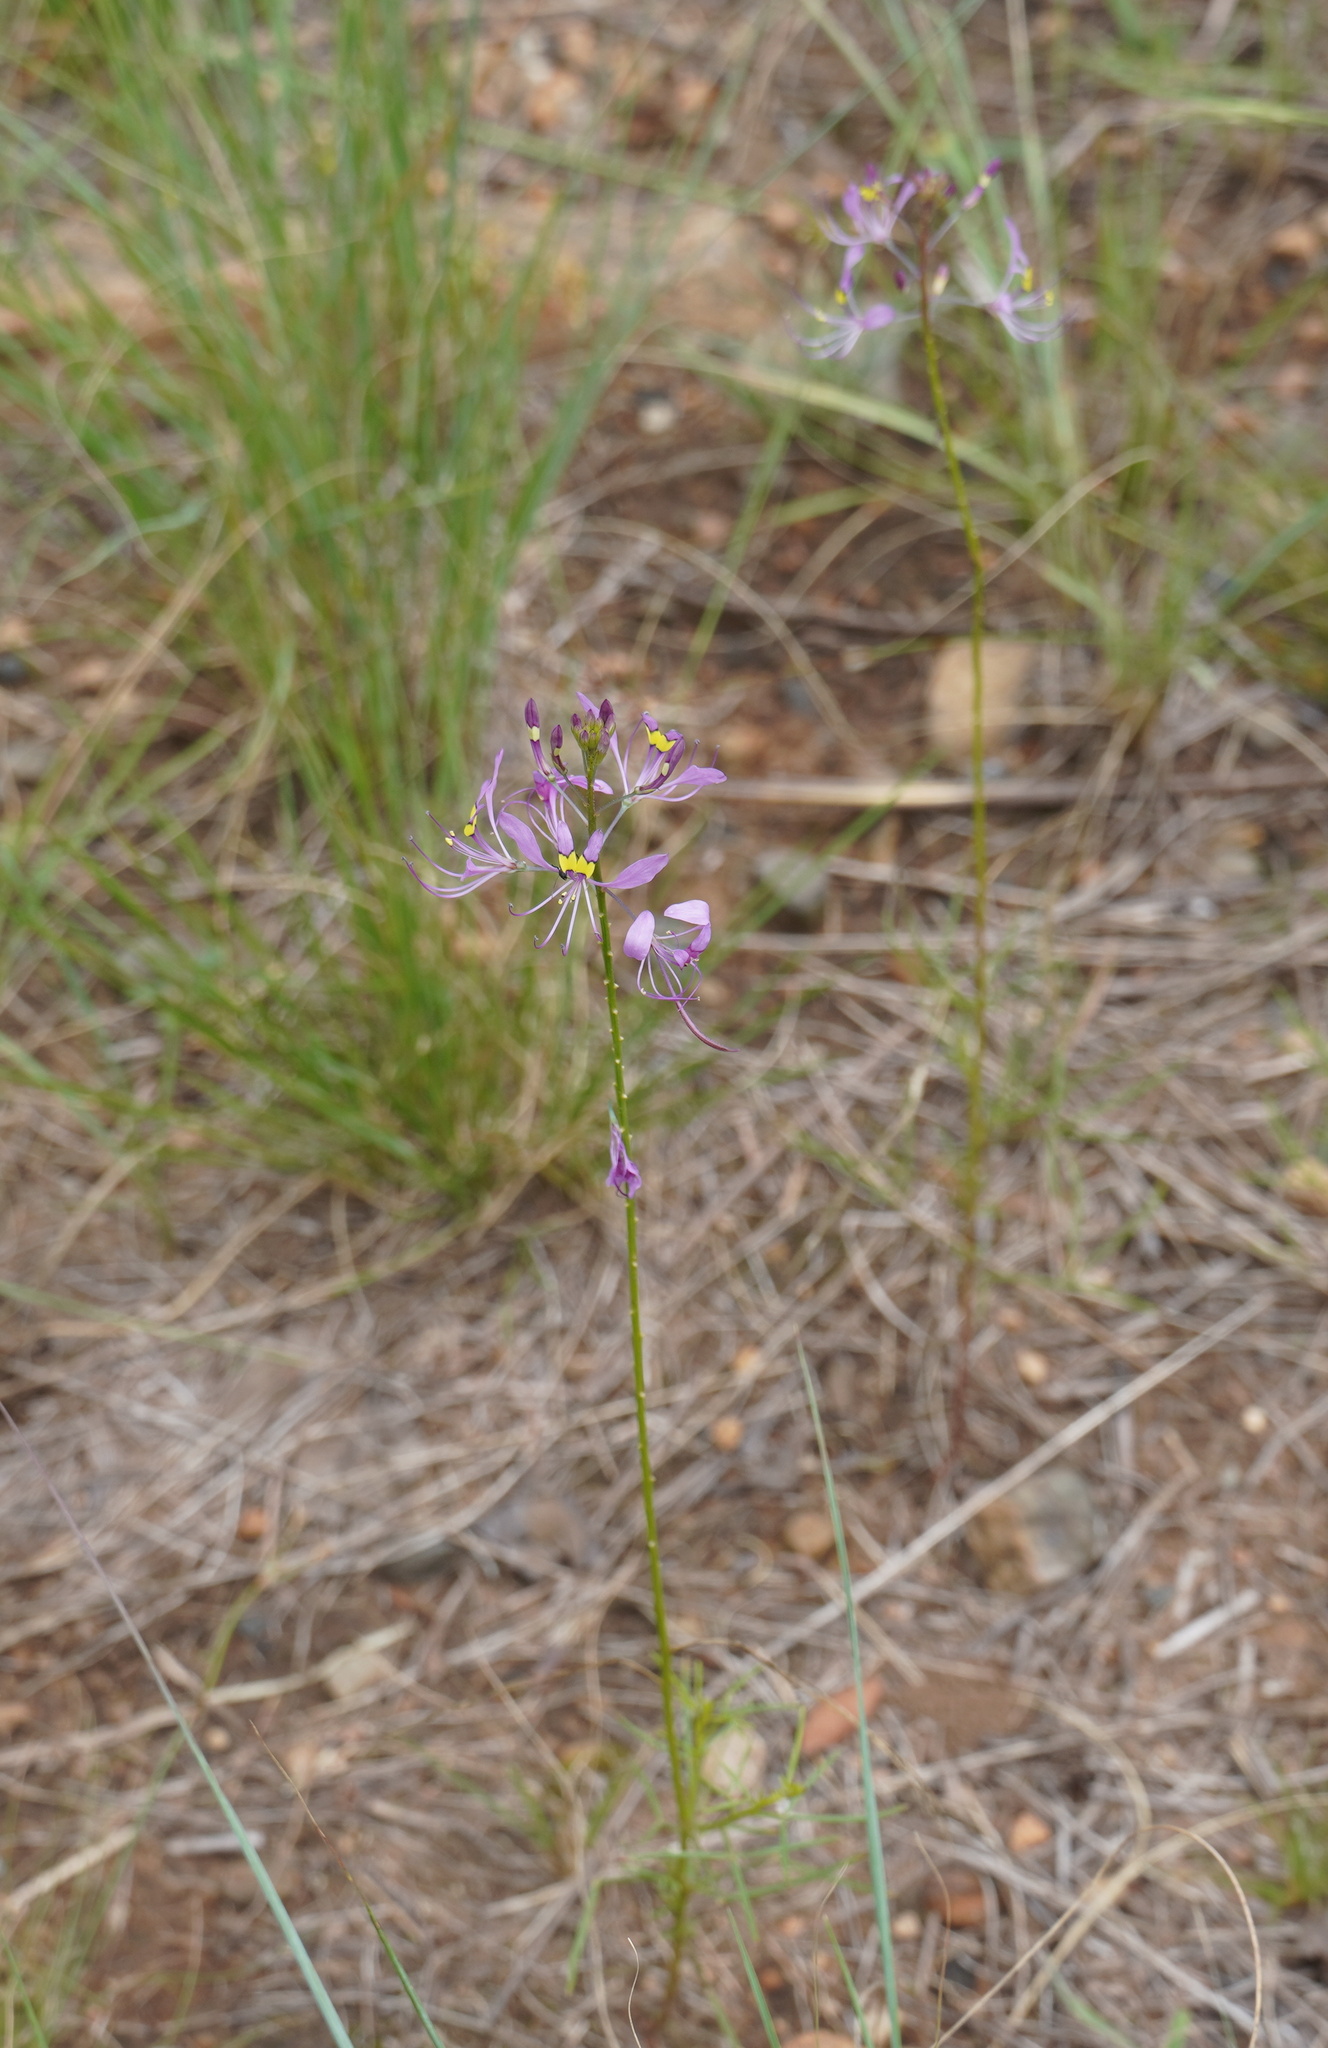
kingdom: Plantae
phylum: Tracheophyta
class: Magnoliopsida
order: Brassicales
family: Cleomaceae
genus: Sieruela
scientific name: Sieruela maculata
